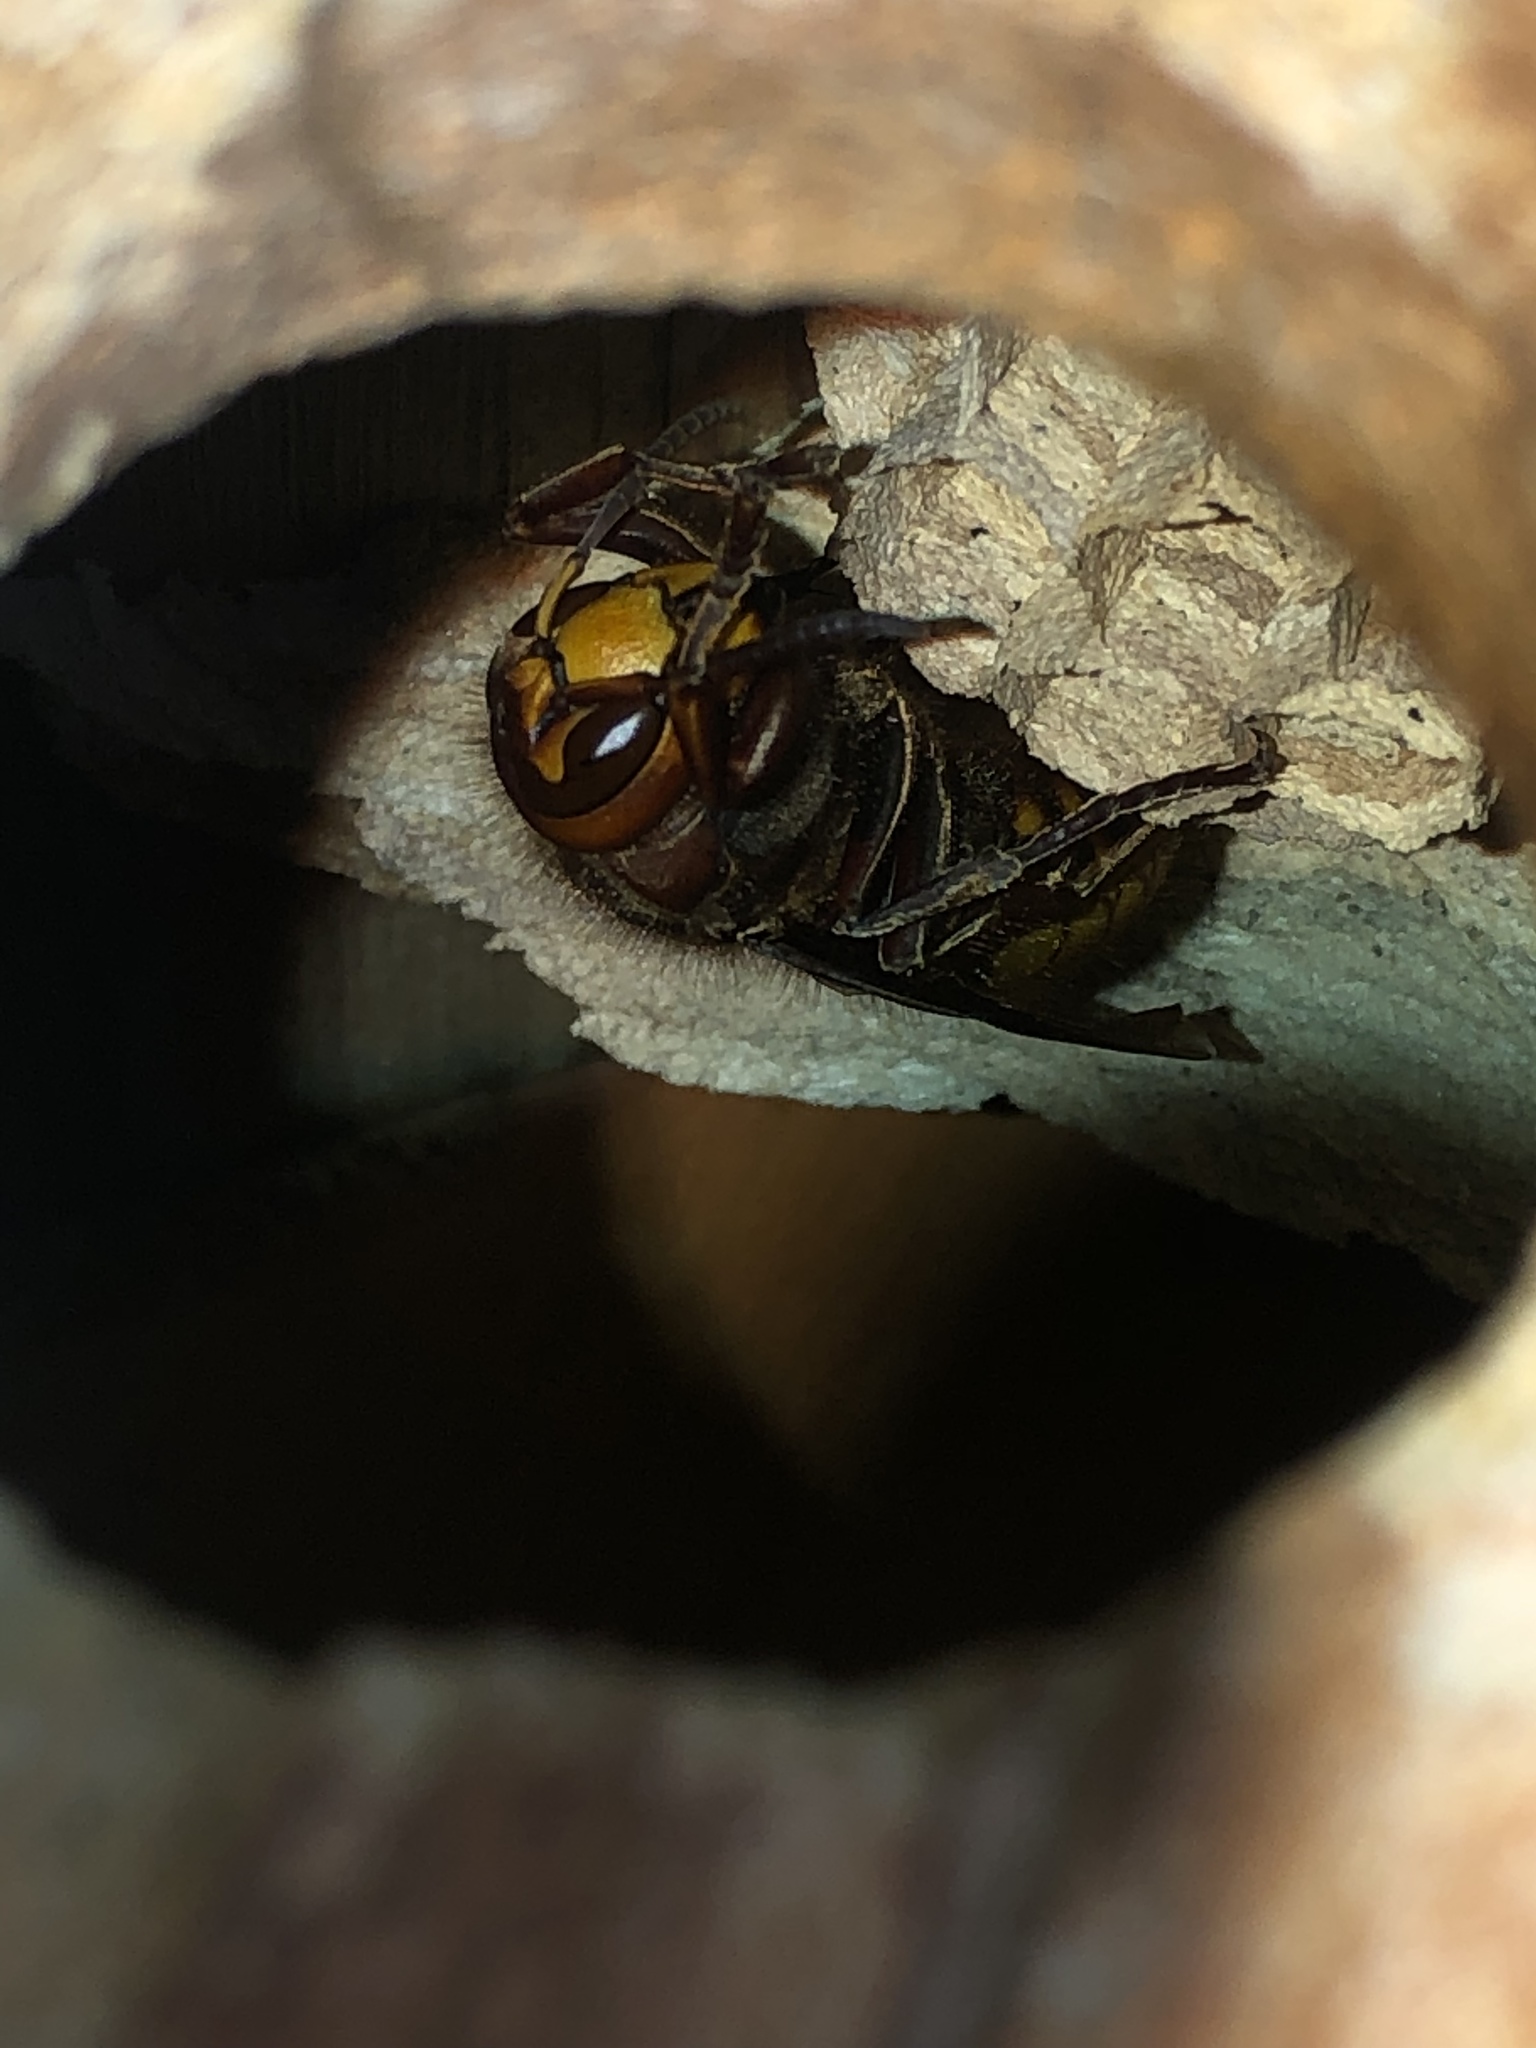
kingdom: Animalia
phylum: Arthropoda
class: Insecta
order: Hymenoptera
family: Vespidae
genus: Vespa
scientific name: Vespa crabro
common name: Hornet
